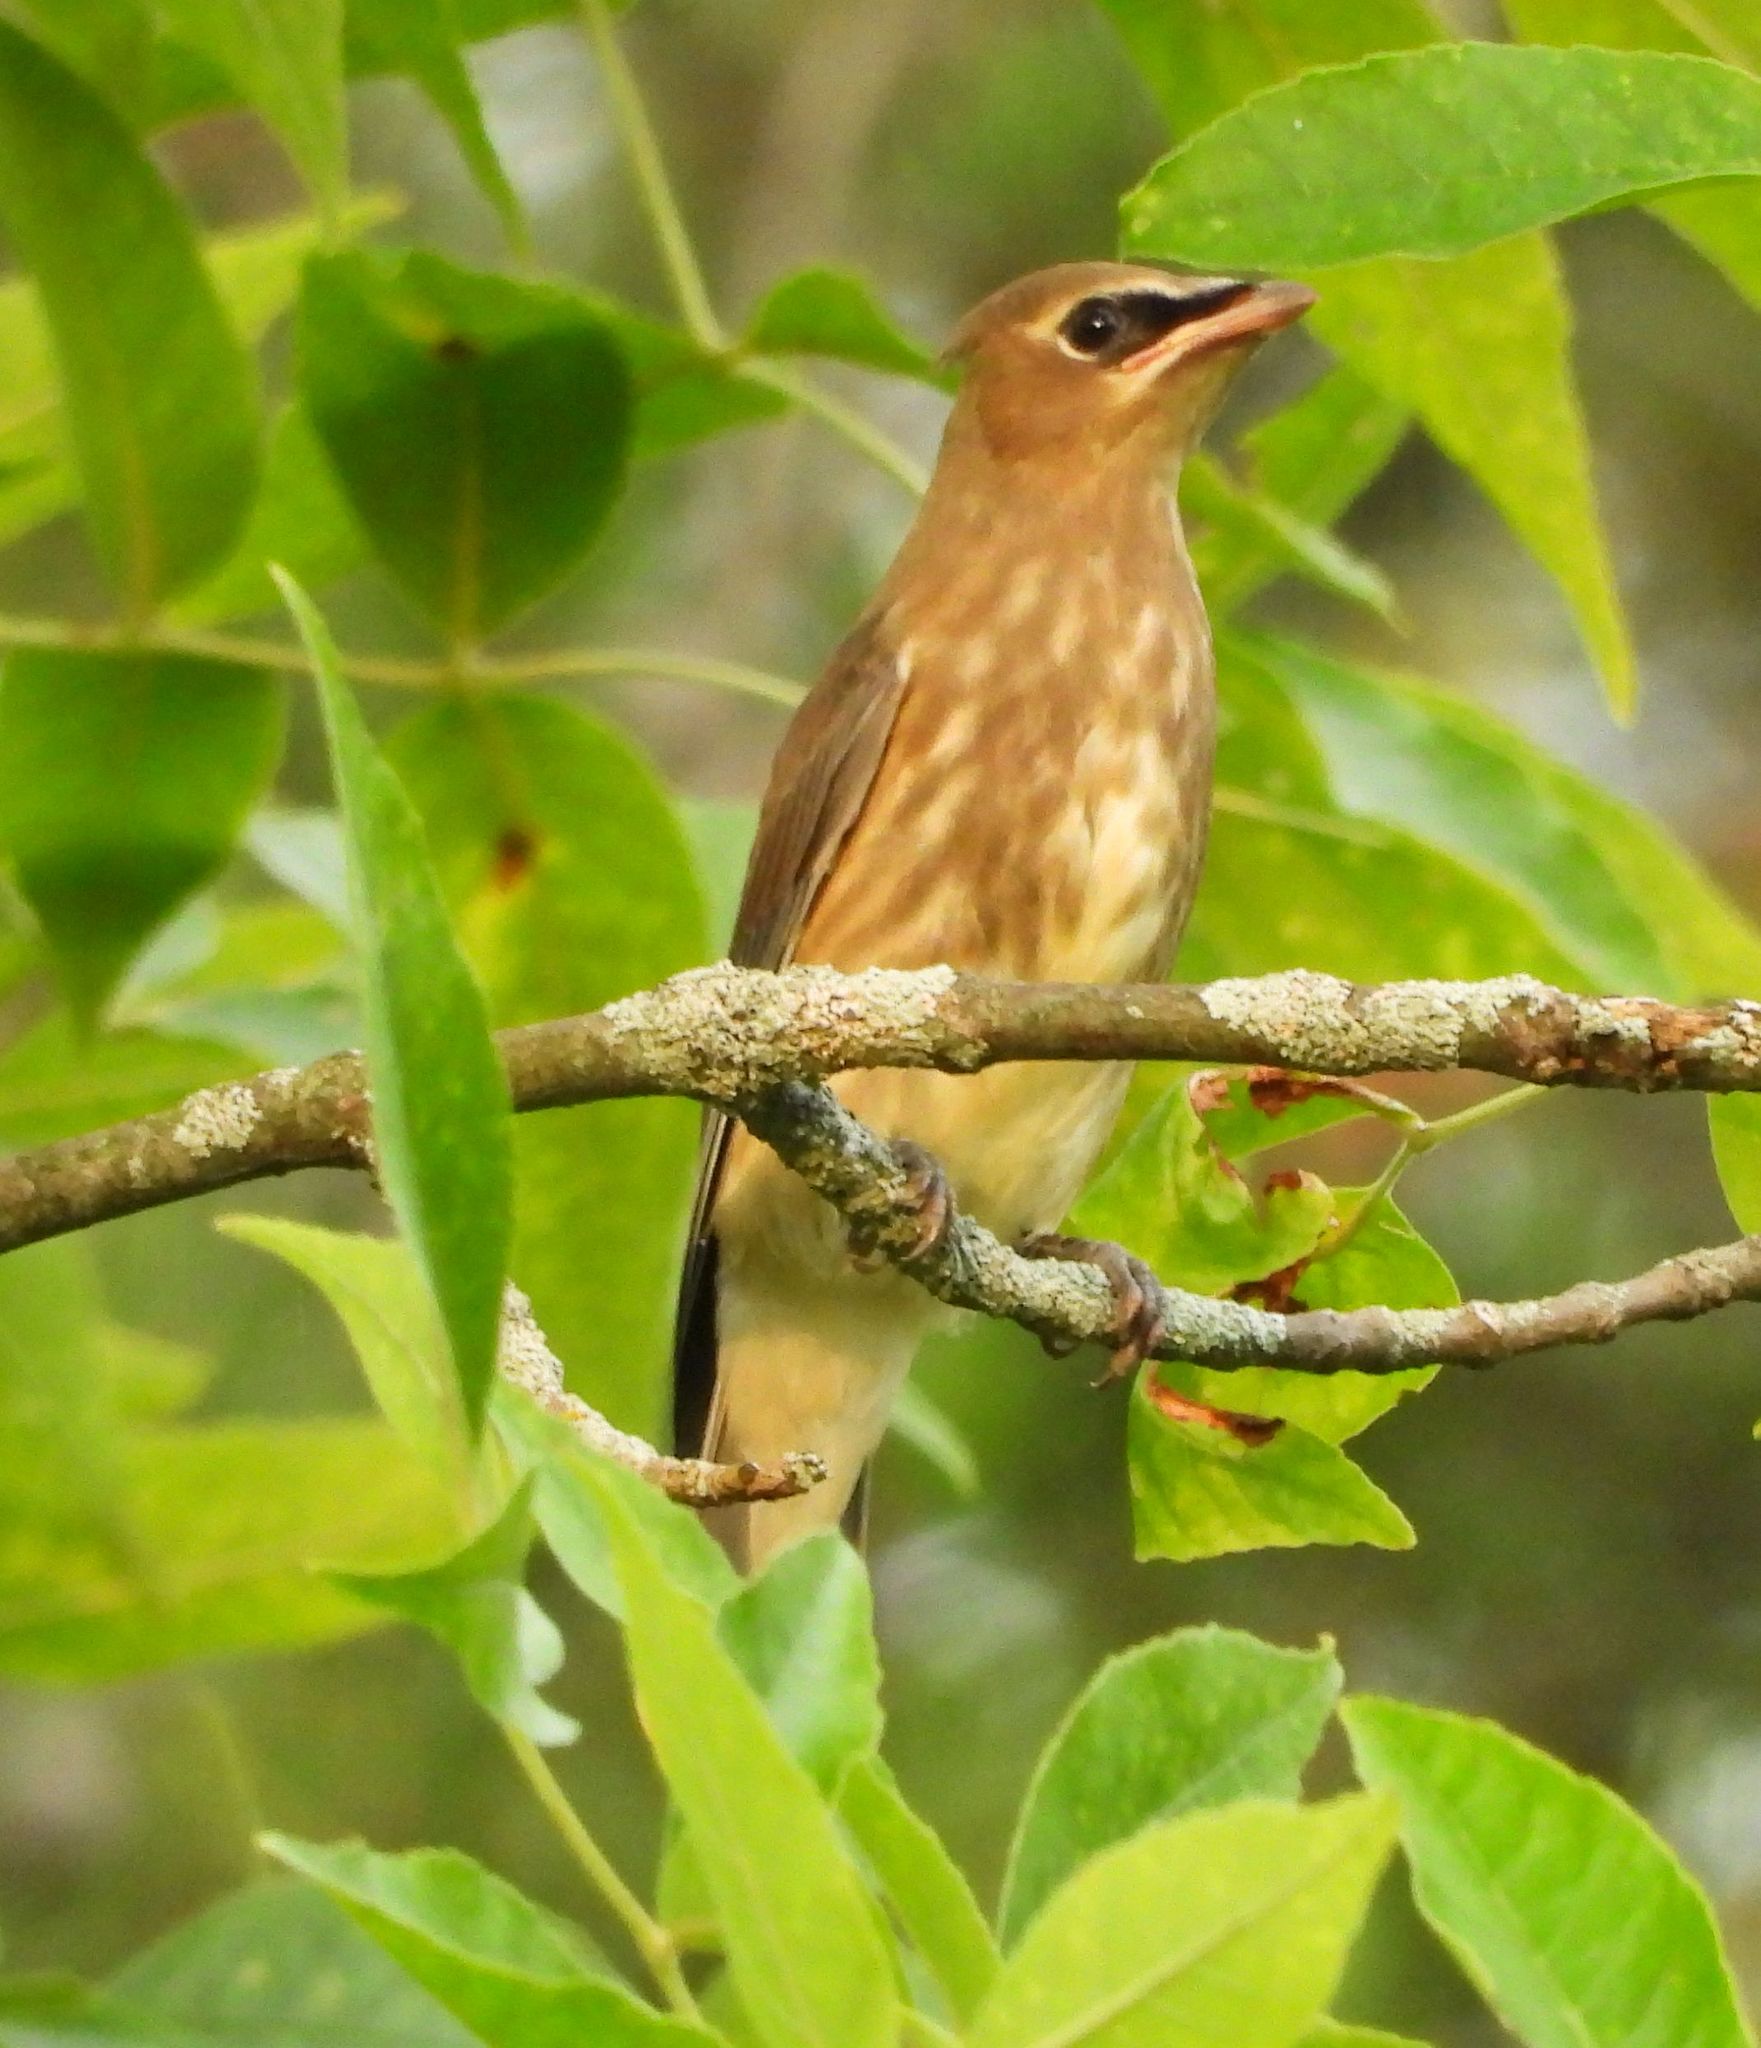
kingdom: Animalia
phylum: Chordata
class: Aves
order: Passeriformes
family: Bombycillidae
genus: Bombycilla
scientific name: Bombycilla cedrorum
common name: Cedar waxwing
